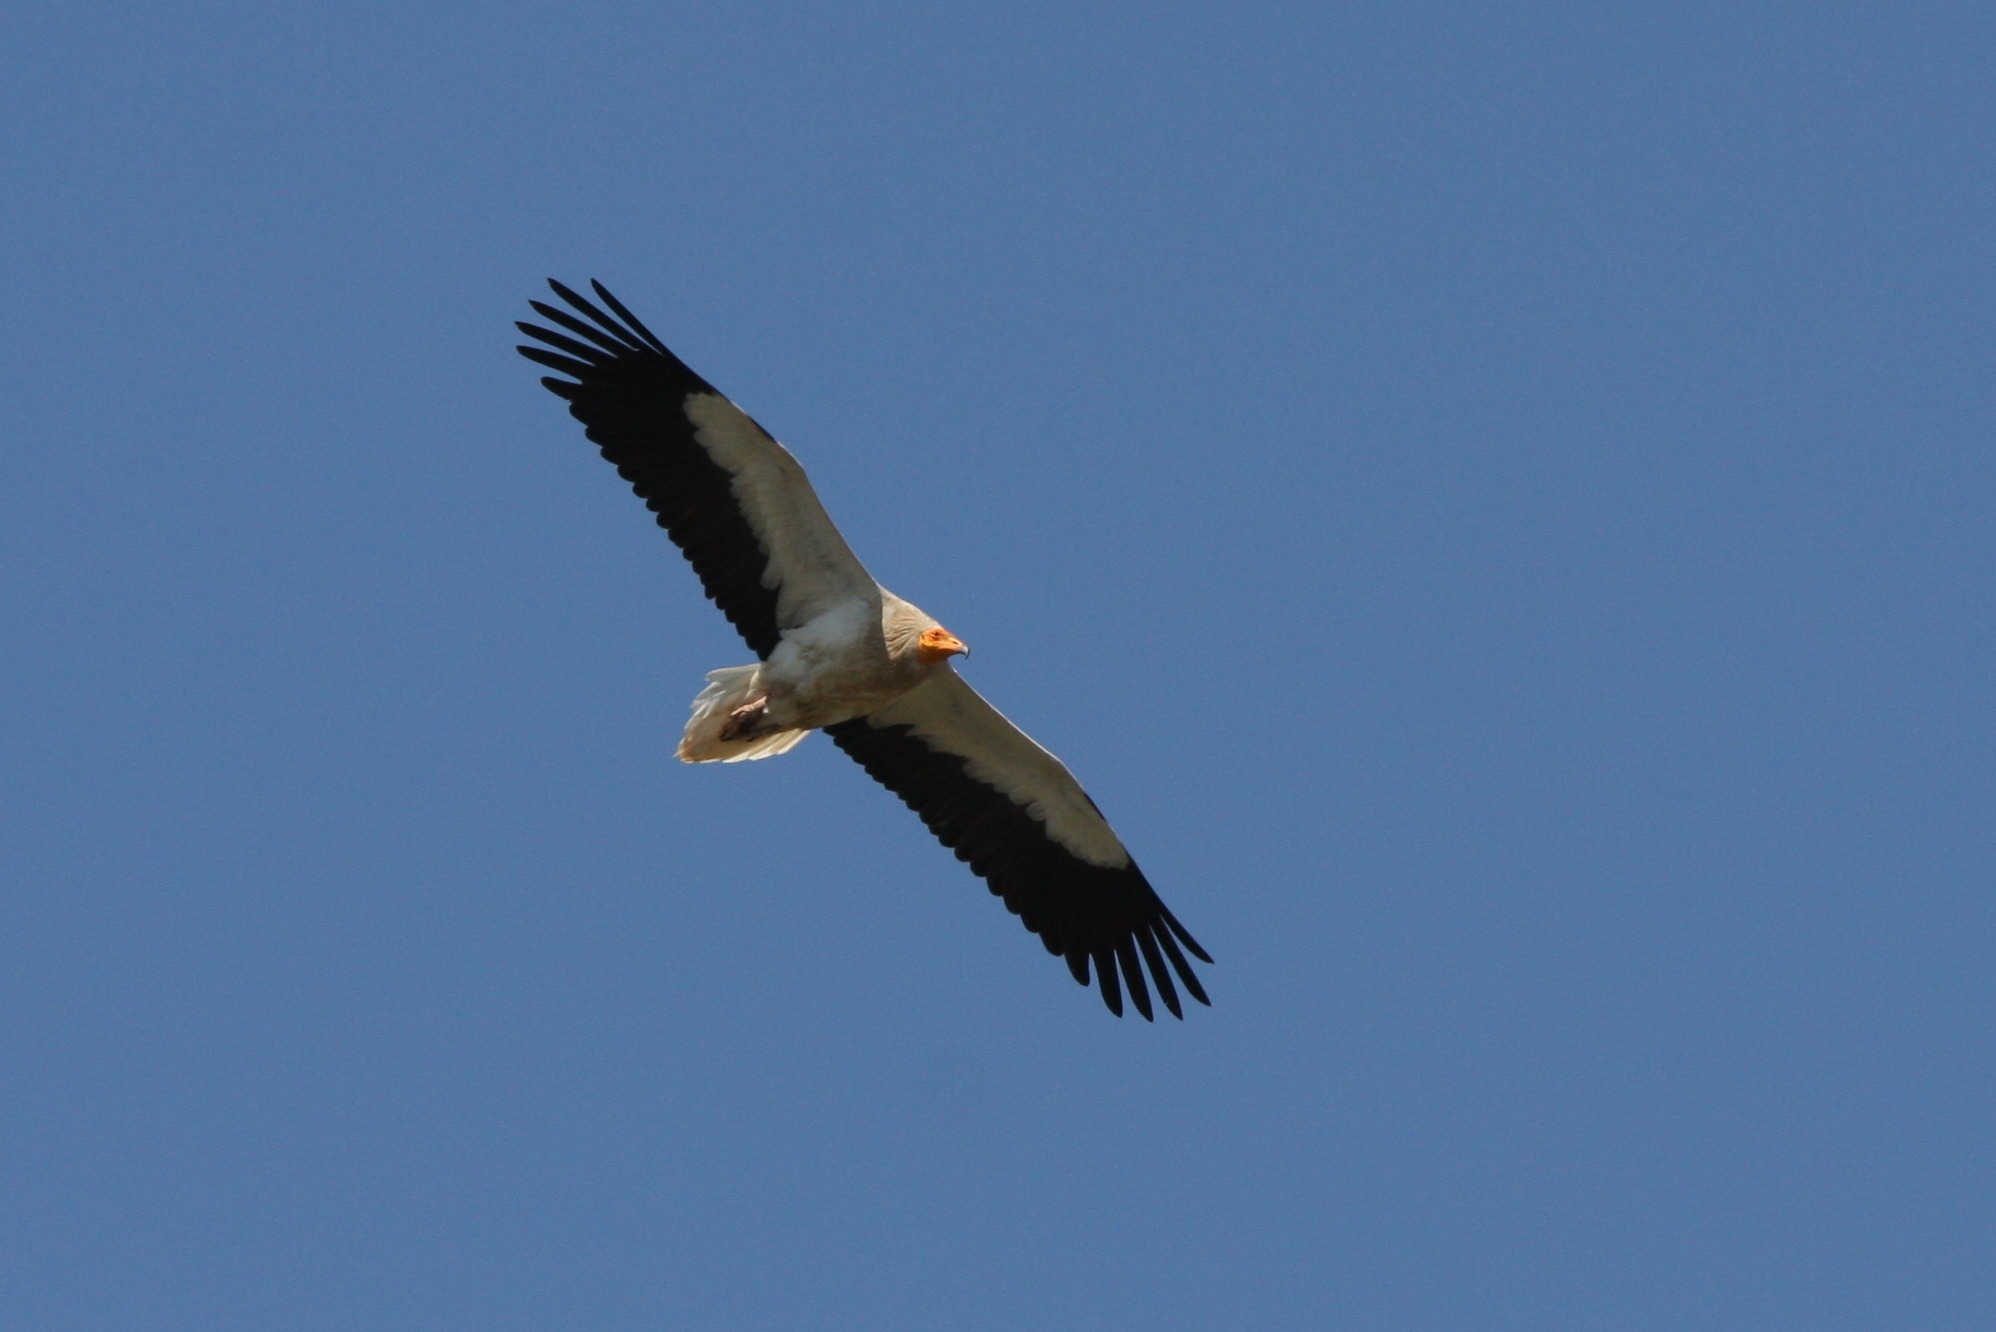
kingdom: Animalia
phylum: Chordata
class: Aves
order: Accipitriformes
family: Accipitridae
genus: Neophron
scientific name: Neophron percnopterus
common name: Egyptian vulture
